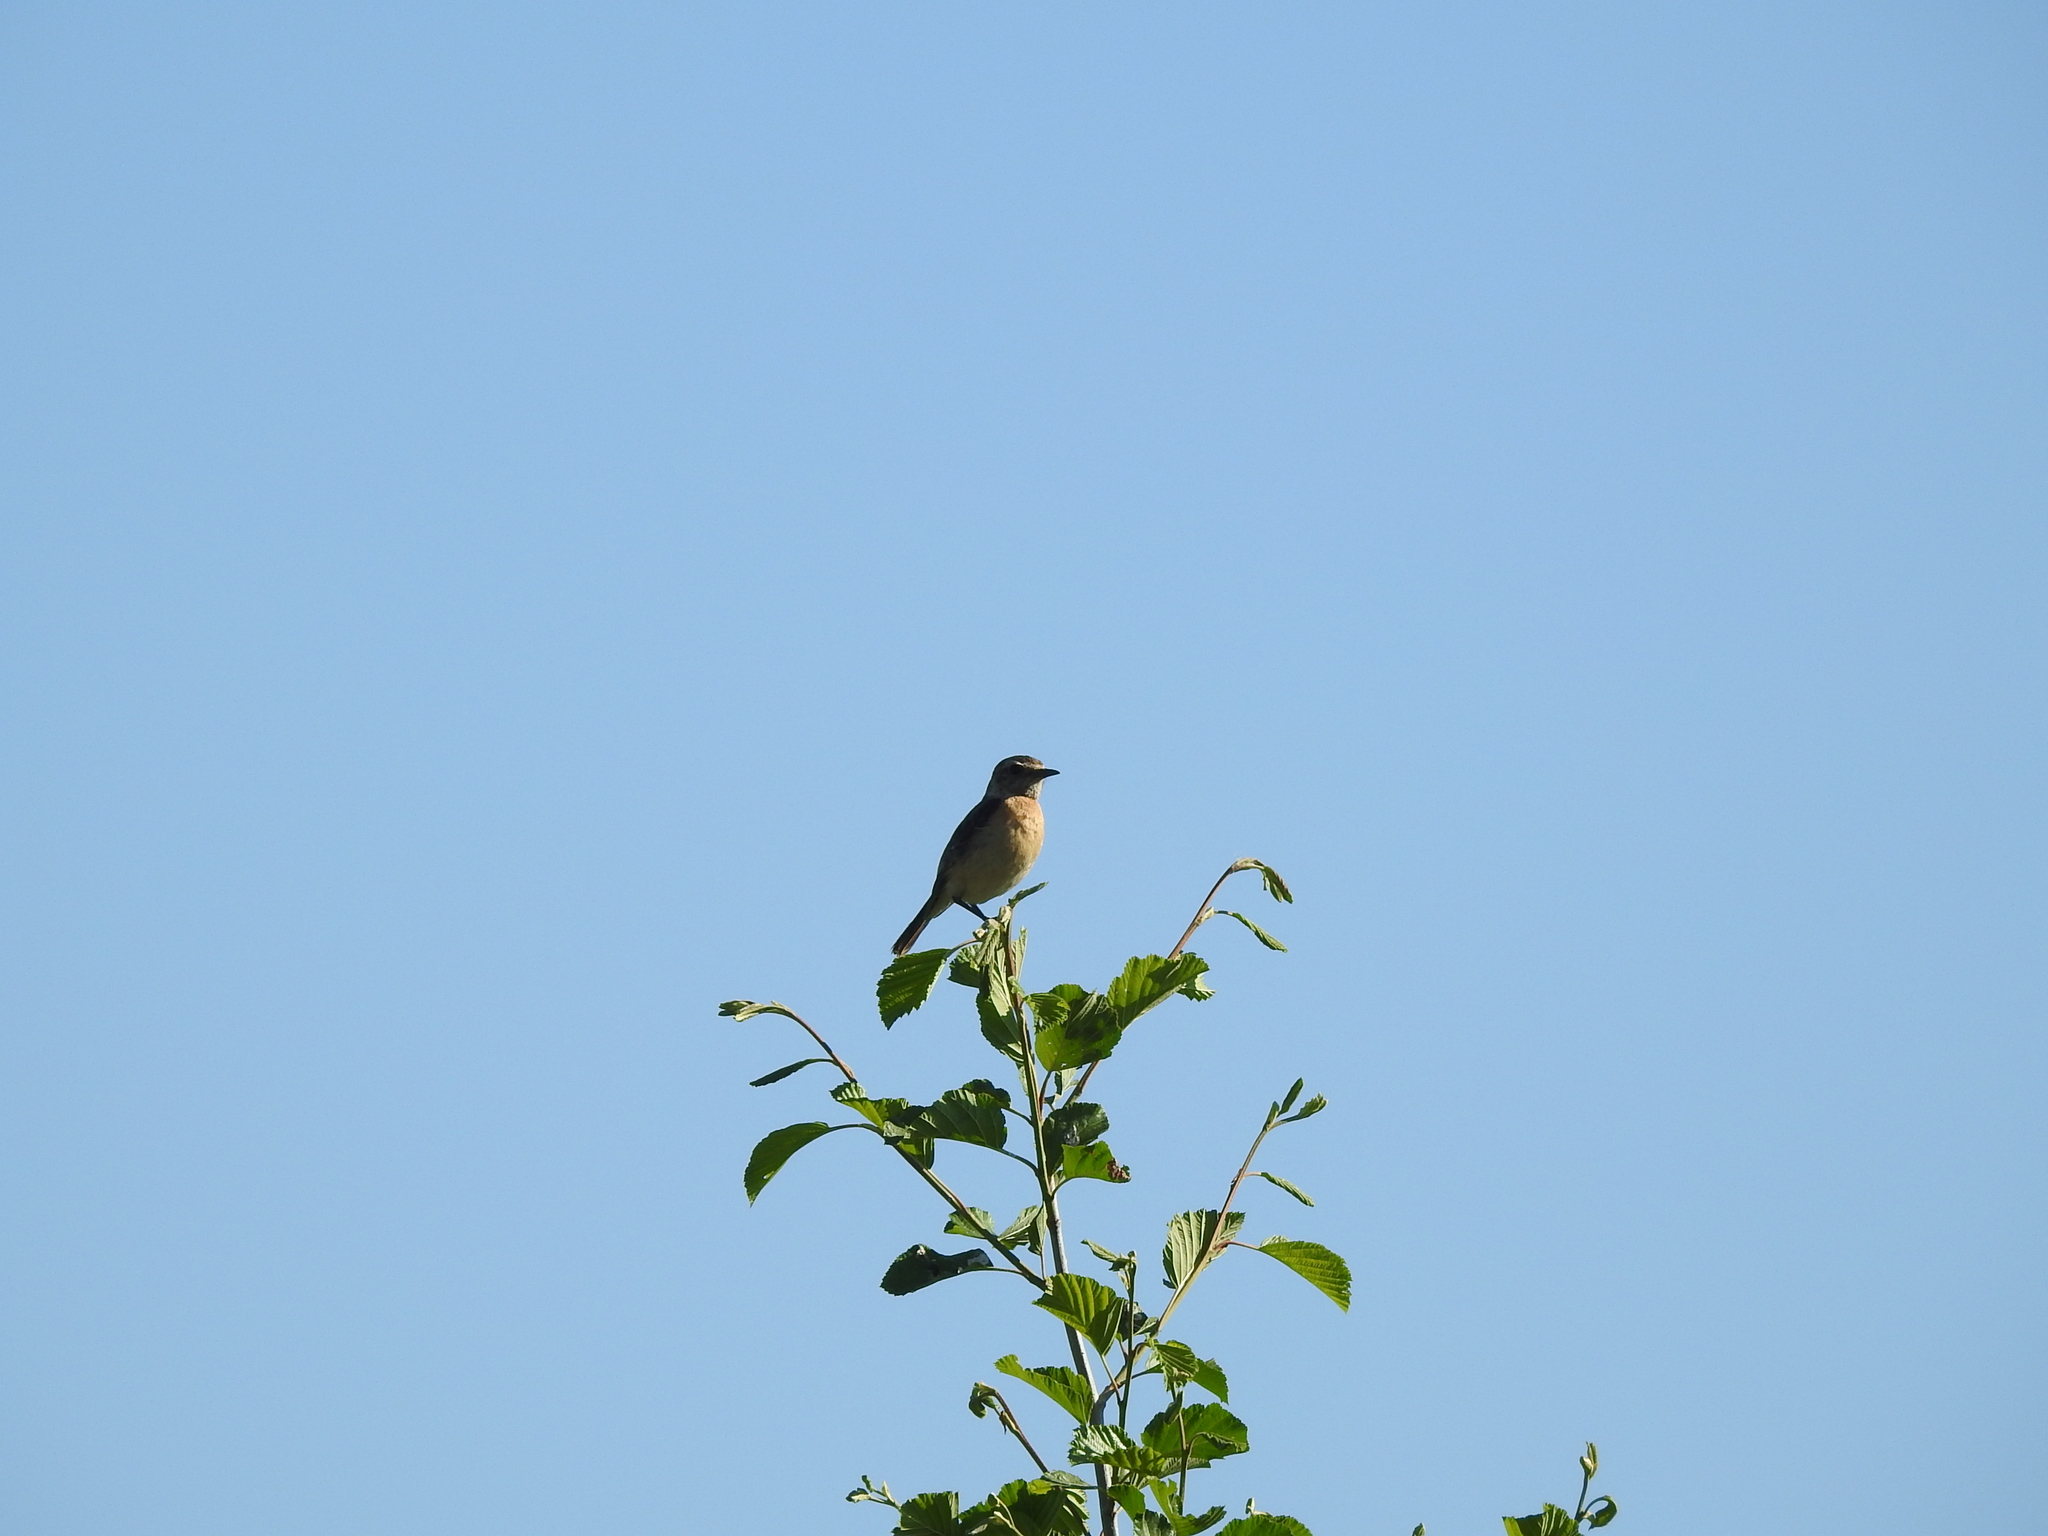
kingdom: Animalia
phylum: Chordata
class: Aves
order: Passeriformes
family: Muscicapidae
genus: Saxicola
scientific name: Saxicola maurus
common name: Siberian stonechat
